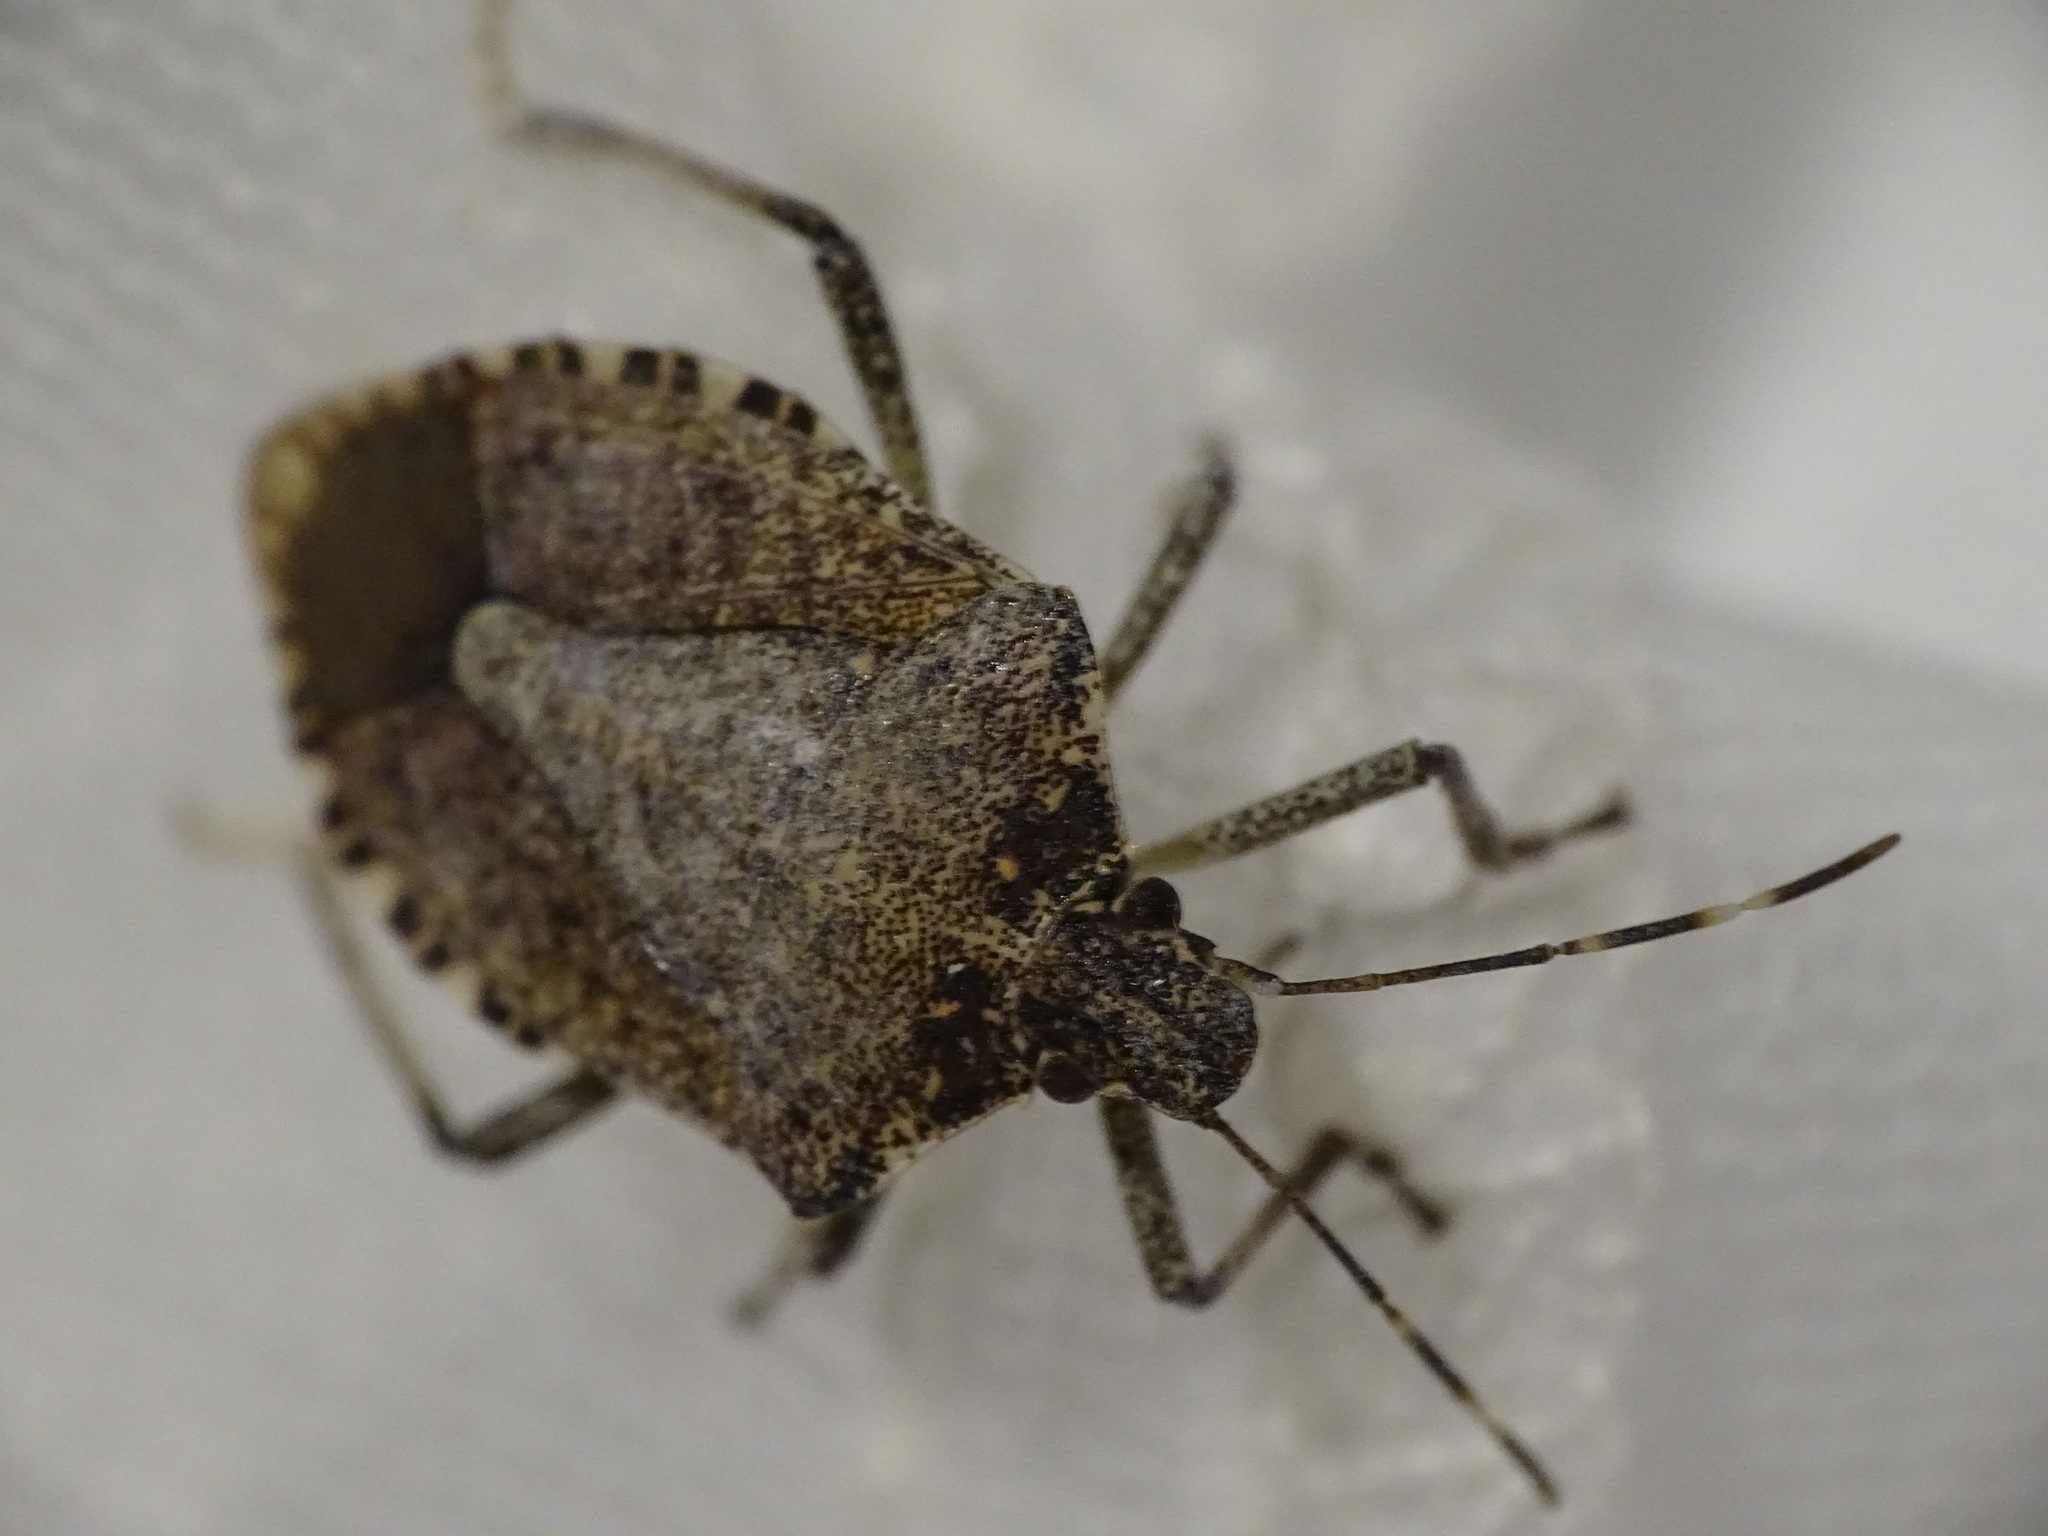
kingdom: Animalia
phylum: Arthropoda
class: Insecta
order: Hemiptera
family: Pentatomidae
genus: Halyomorpha
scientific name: Halyomorpha halys
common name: Brown marmorated stink bug
